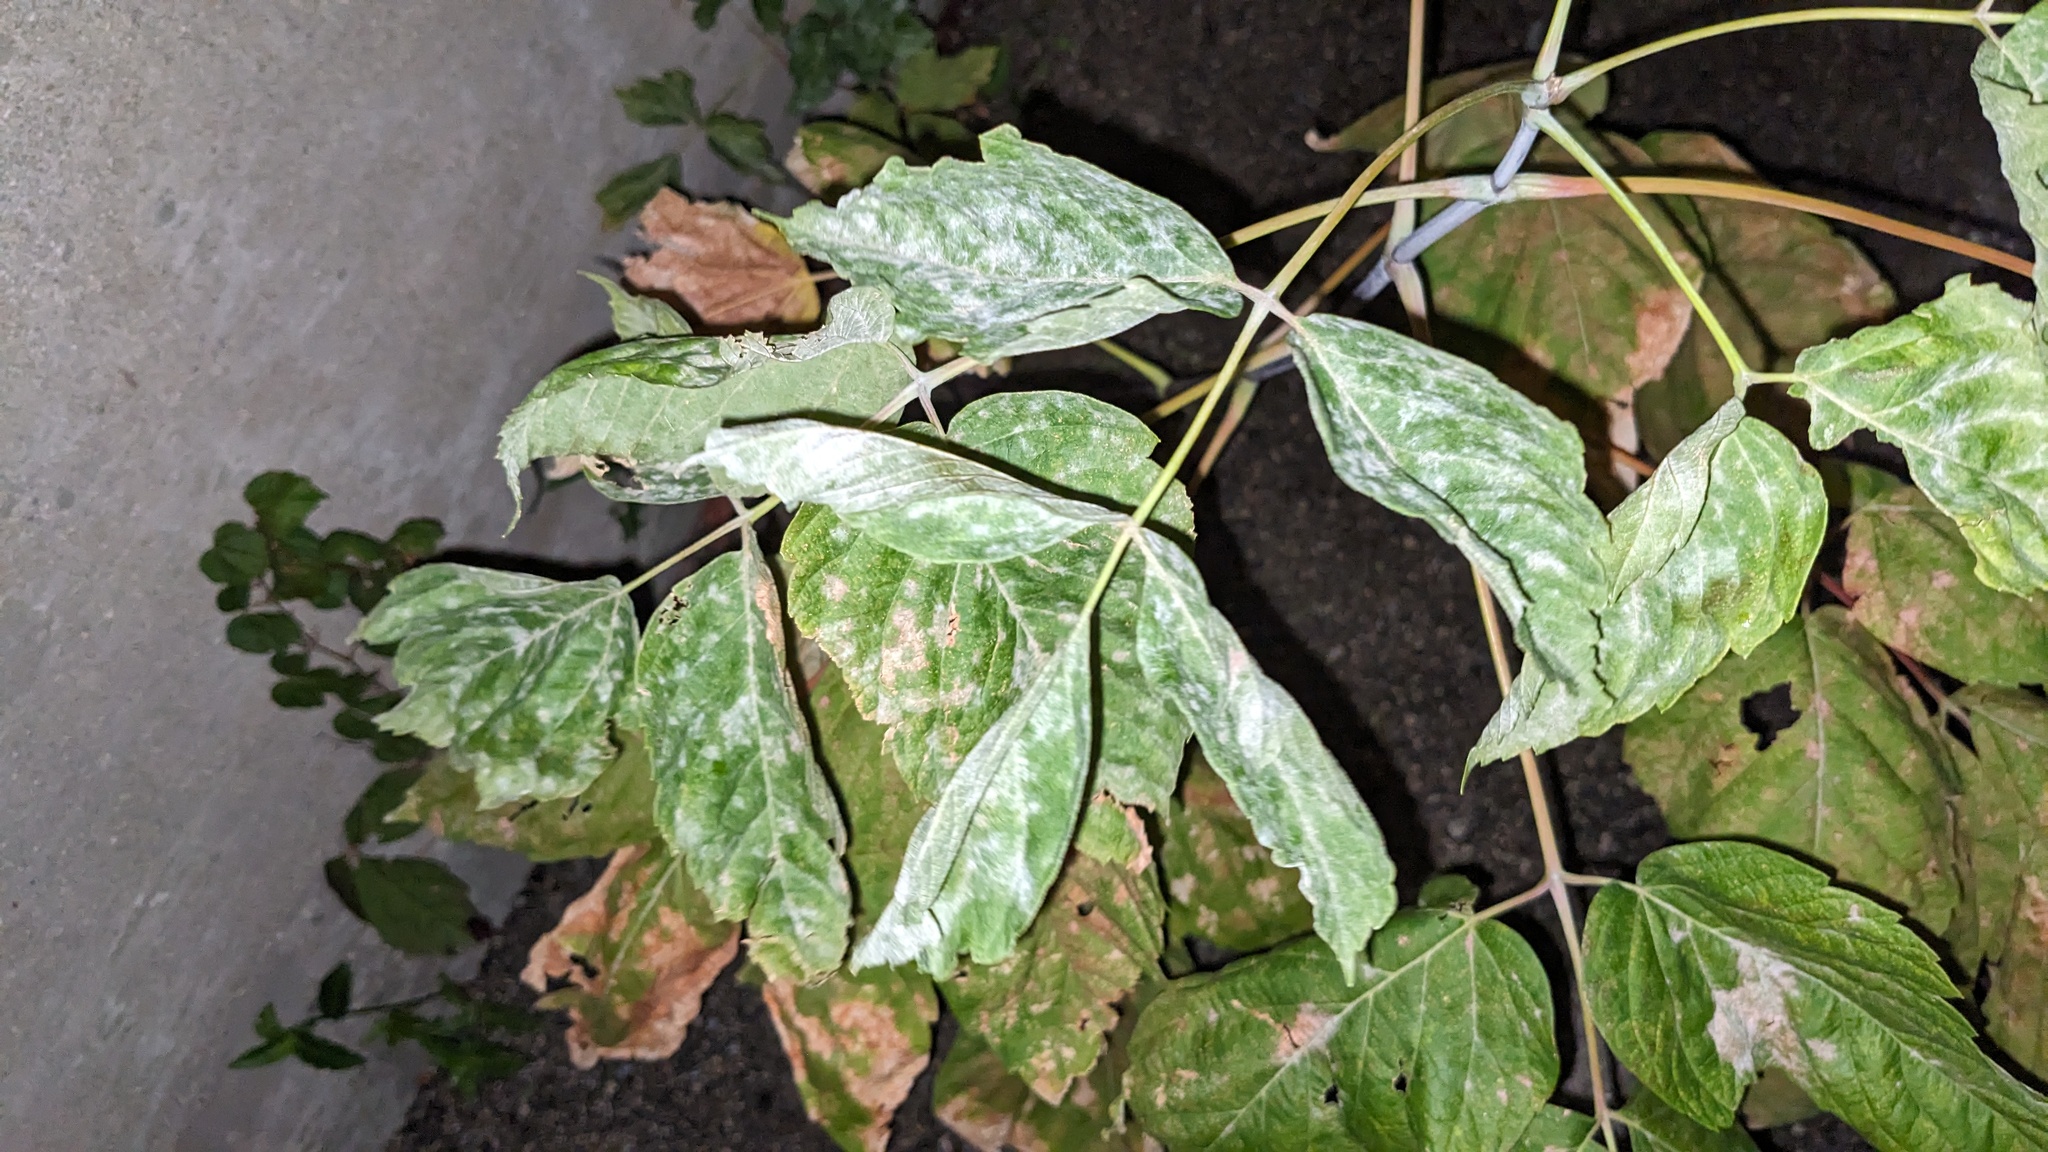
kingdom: Plantae
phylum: Tracheophyta
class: Magnoliopsida
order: Sapindales
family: Sapindaceae
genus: Acer
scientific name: Acer negundo
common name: Ashleaf maple
